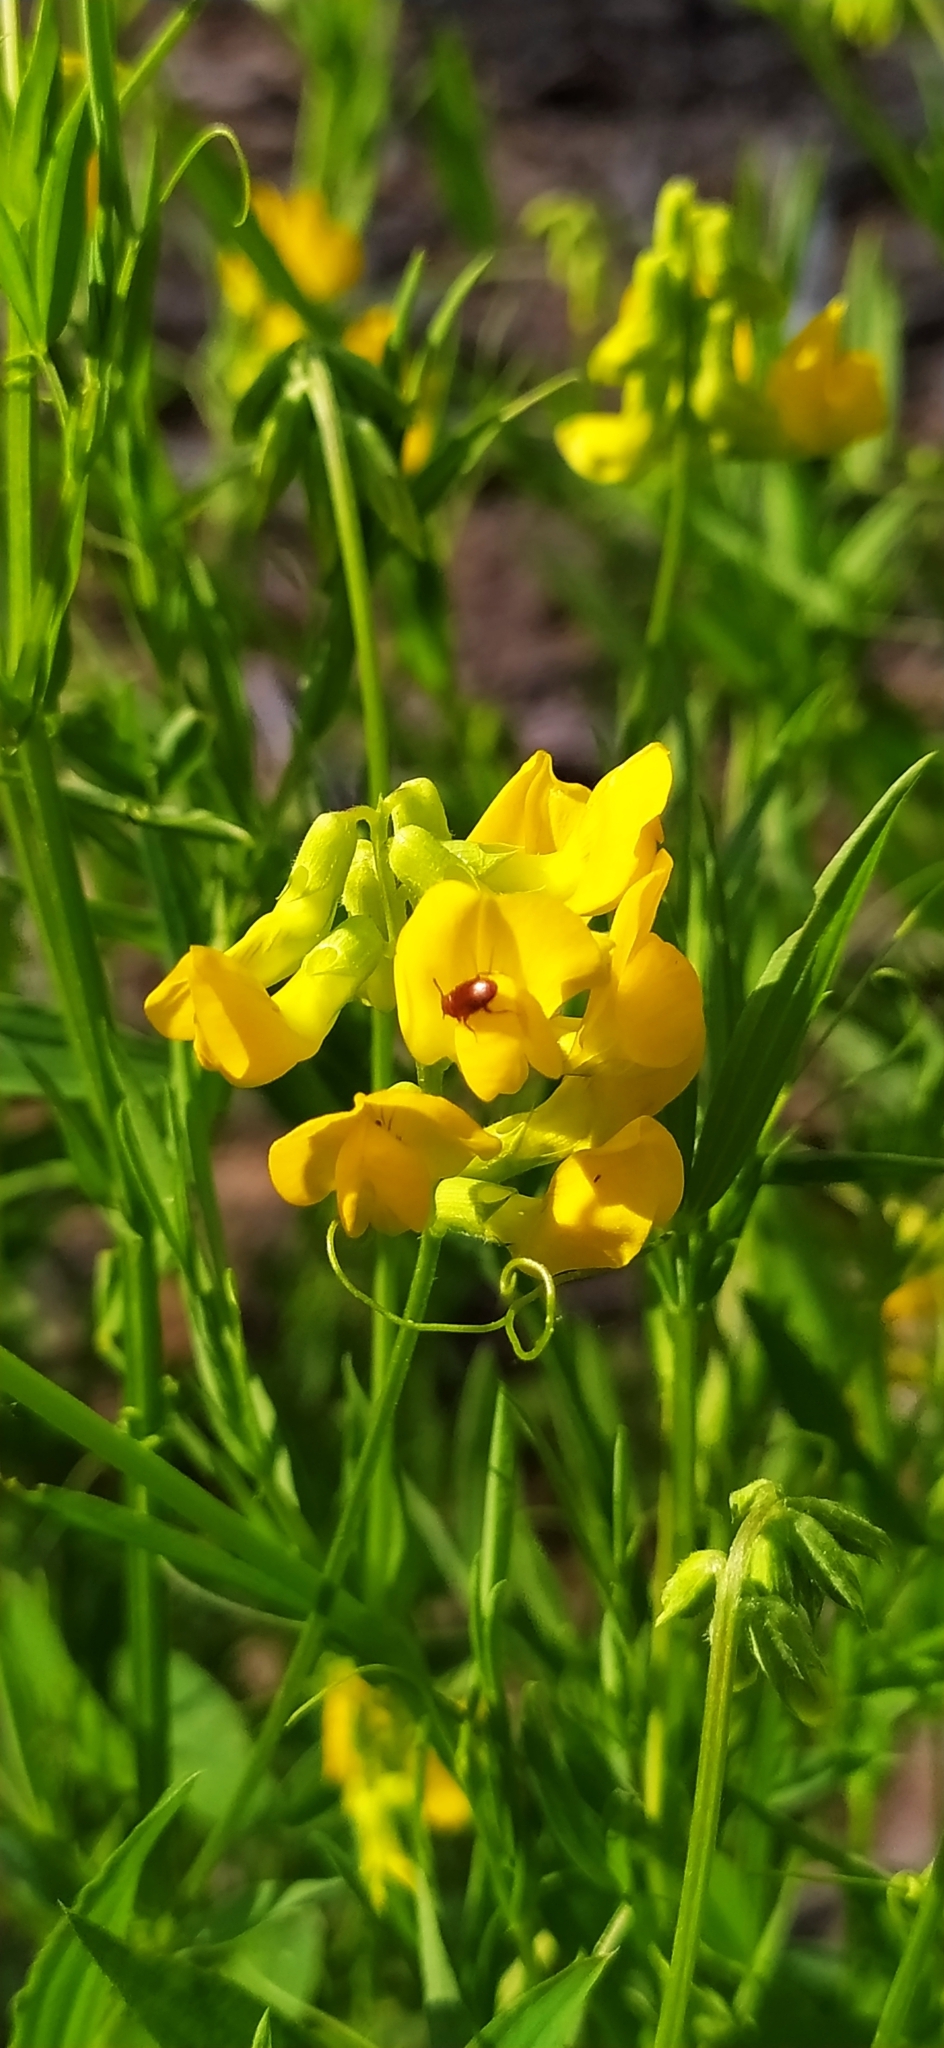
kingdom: Plantae
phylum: Tracheophyta
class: Magnoliopsida
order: Fabales
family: Fabaceae
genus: Lathyrus
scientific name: Lathyrus pratensis
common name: Meadow vetchling
